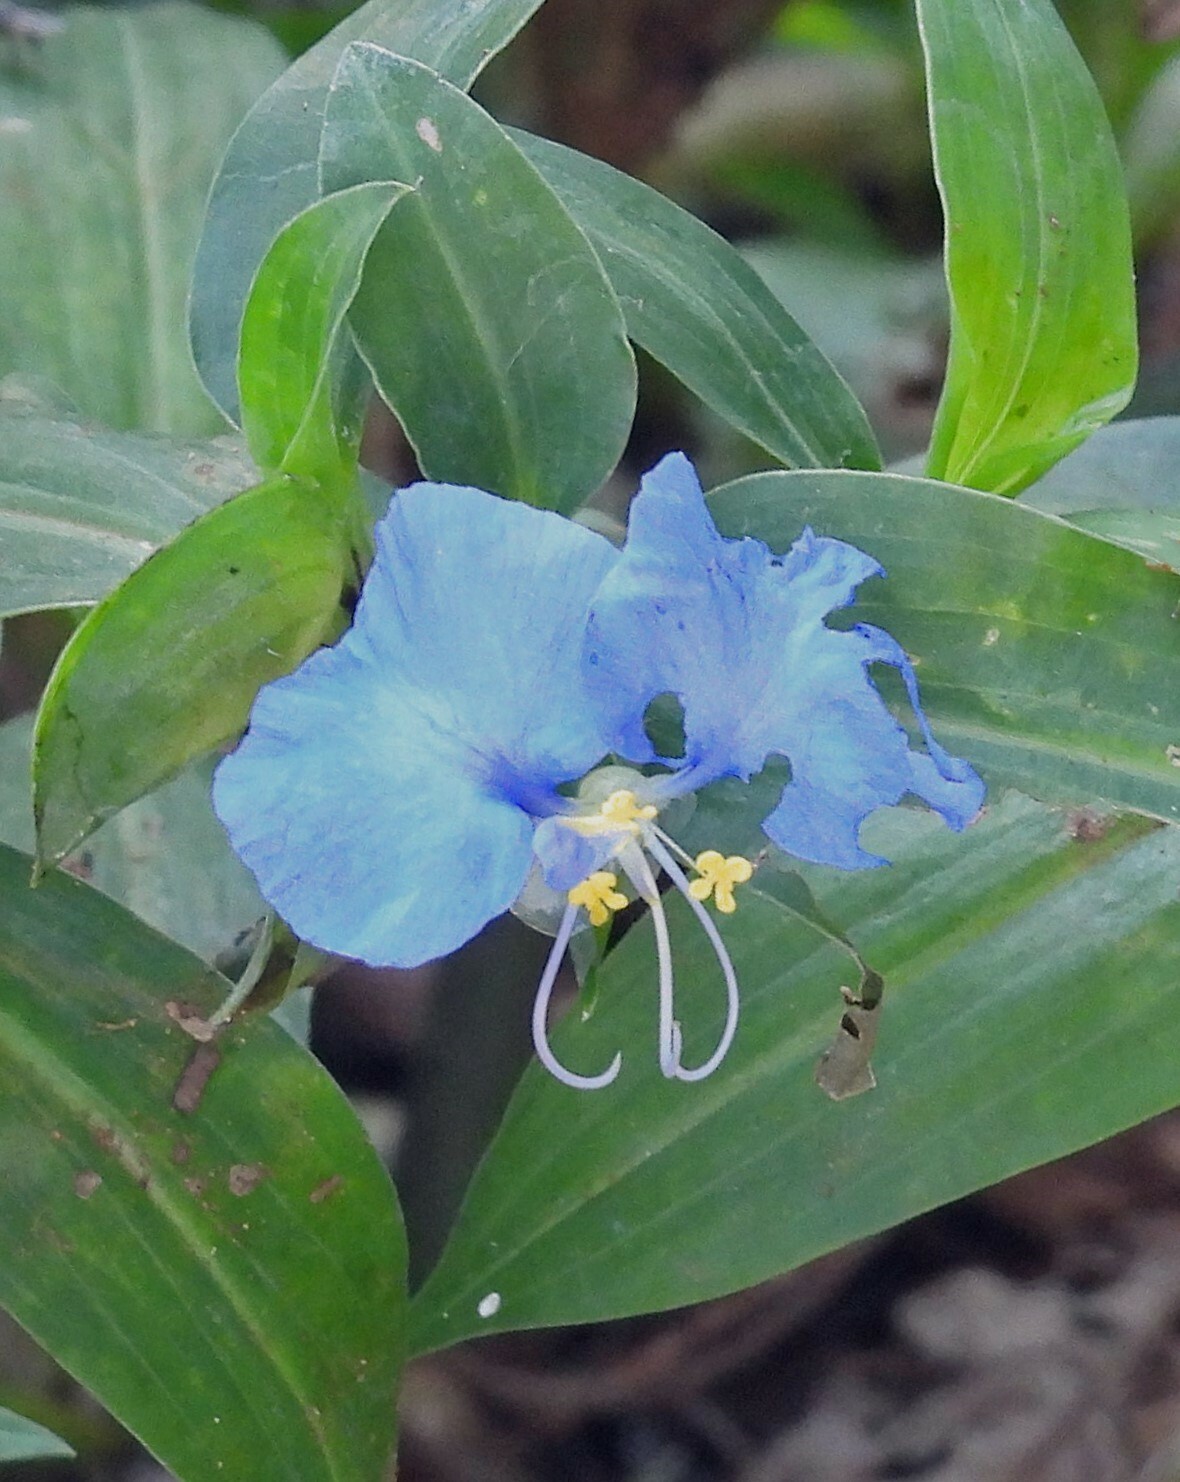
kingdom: Plantae
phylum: Tracheophyta
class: Liliopsida
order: Commelinales
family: Commelinaceae
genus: Commelina
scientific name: Commelina erecta
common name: Blousel blommetjie
